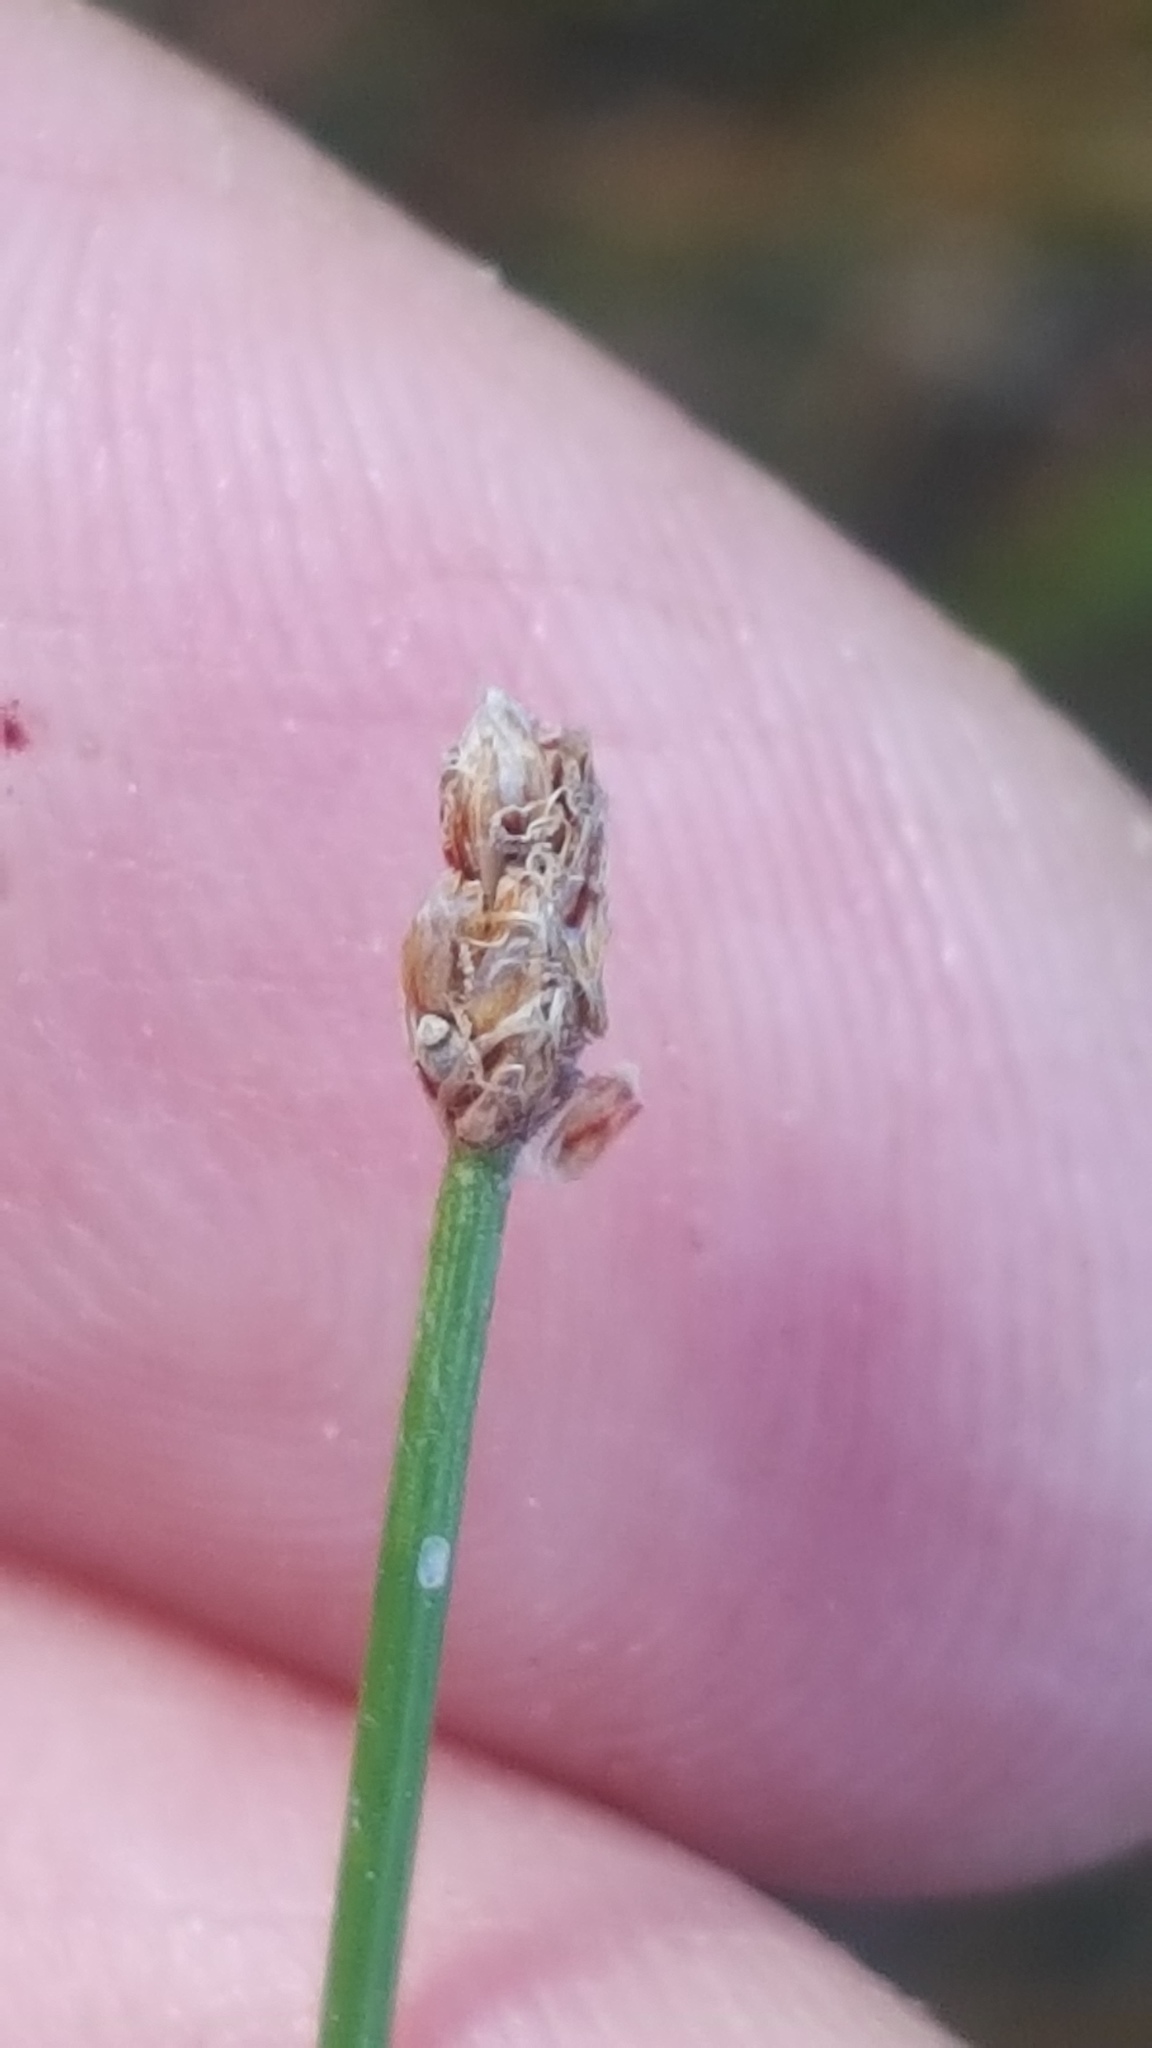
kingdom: Plantae
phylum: Tracheophyta
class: Liliopsida
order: Poales
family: Cyperaceae
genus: Eleocharis
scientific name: Eleocharis compressa
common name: Flat-stem spike-rush
